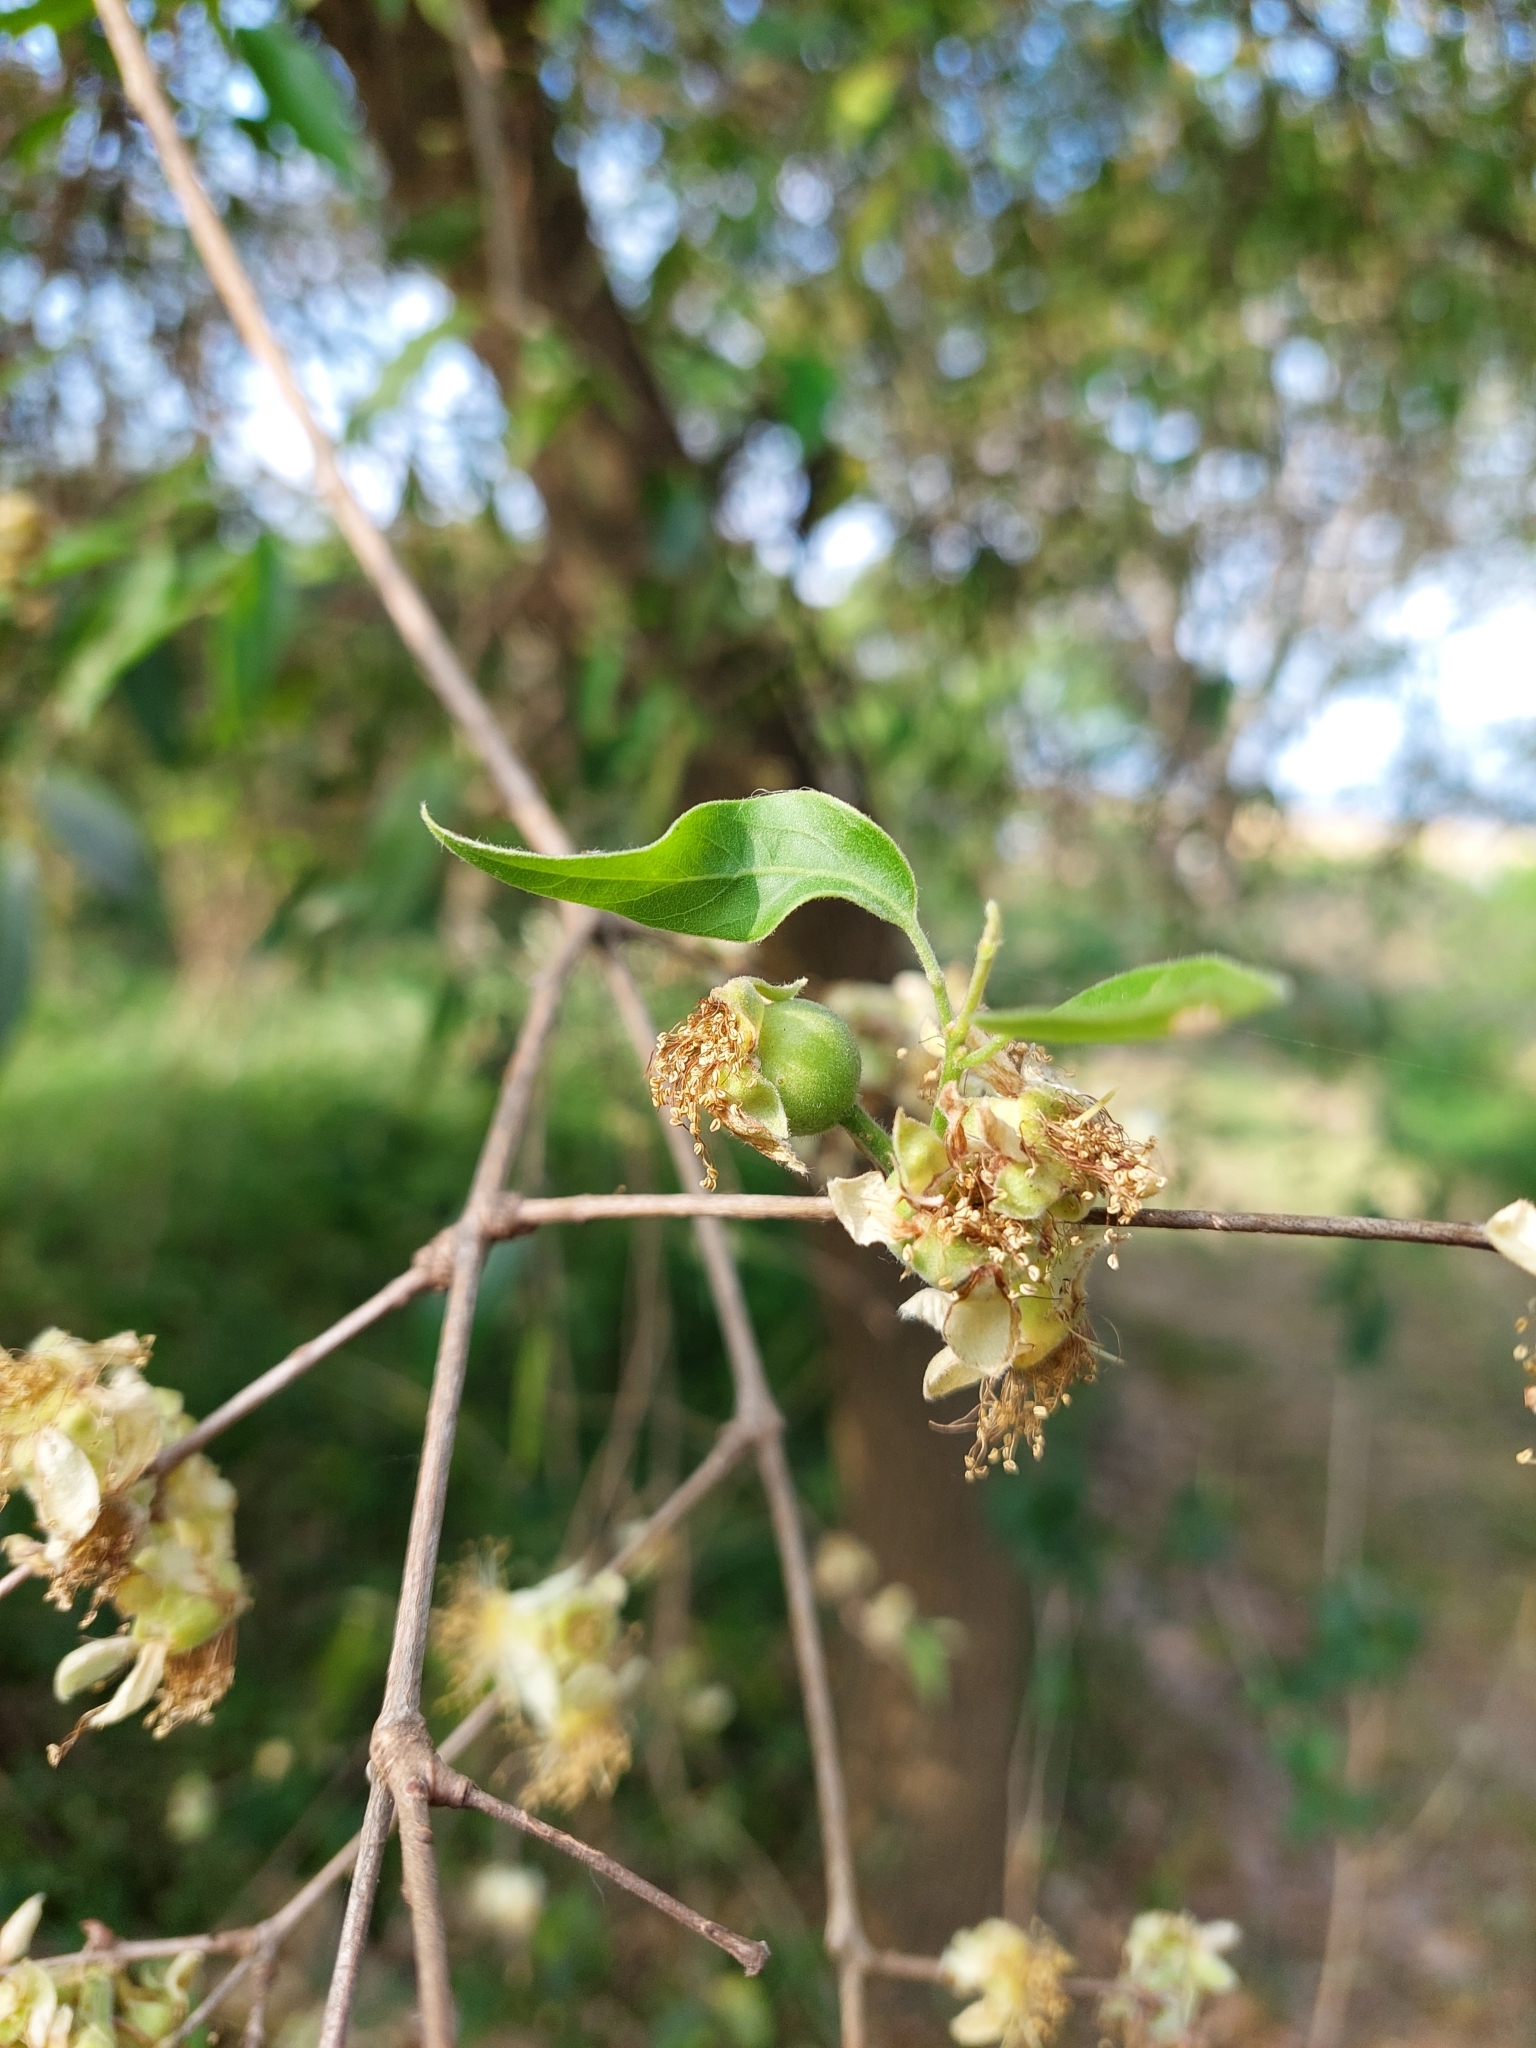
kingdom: Plantae
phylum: Tracheophyta
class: Magnoliopsida
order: Myrtales
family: Myrtaceae
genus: Eugenia
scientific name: Eugenia myrcianthes
